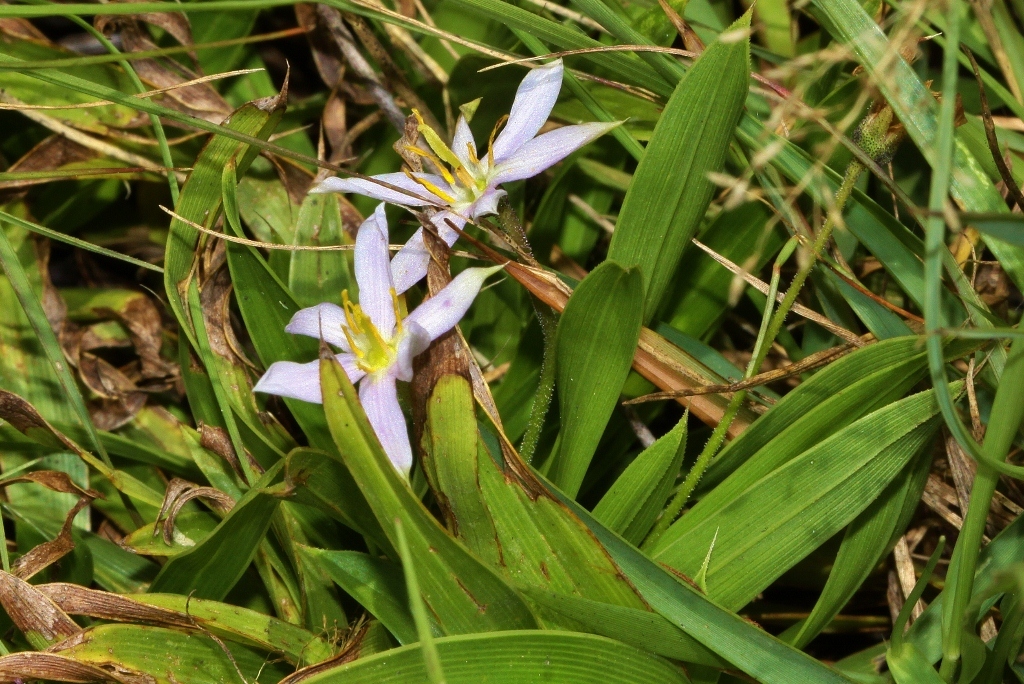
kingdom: Plantae
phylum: Tracheophyta
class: Liliopsida
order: Pandanales
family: Velloziaceae
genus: Xerophyta
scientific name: Xerophyta humilis
